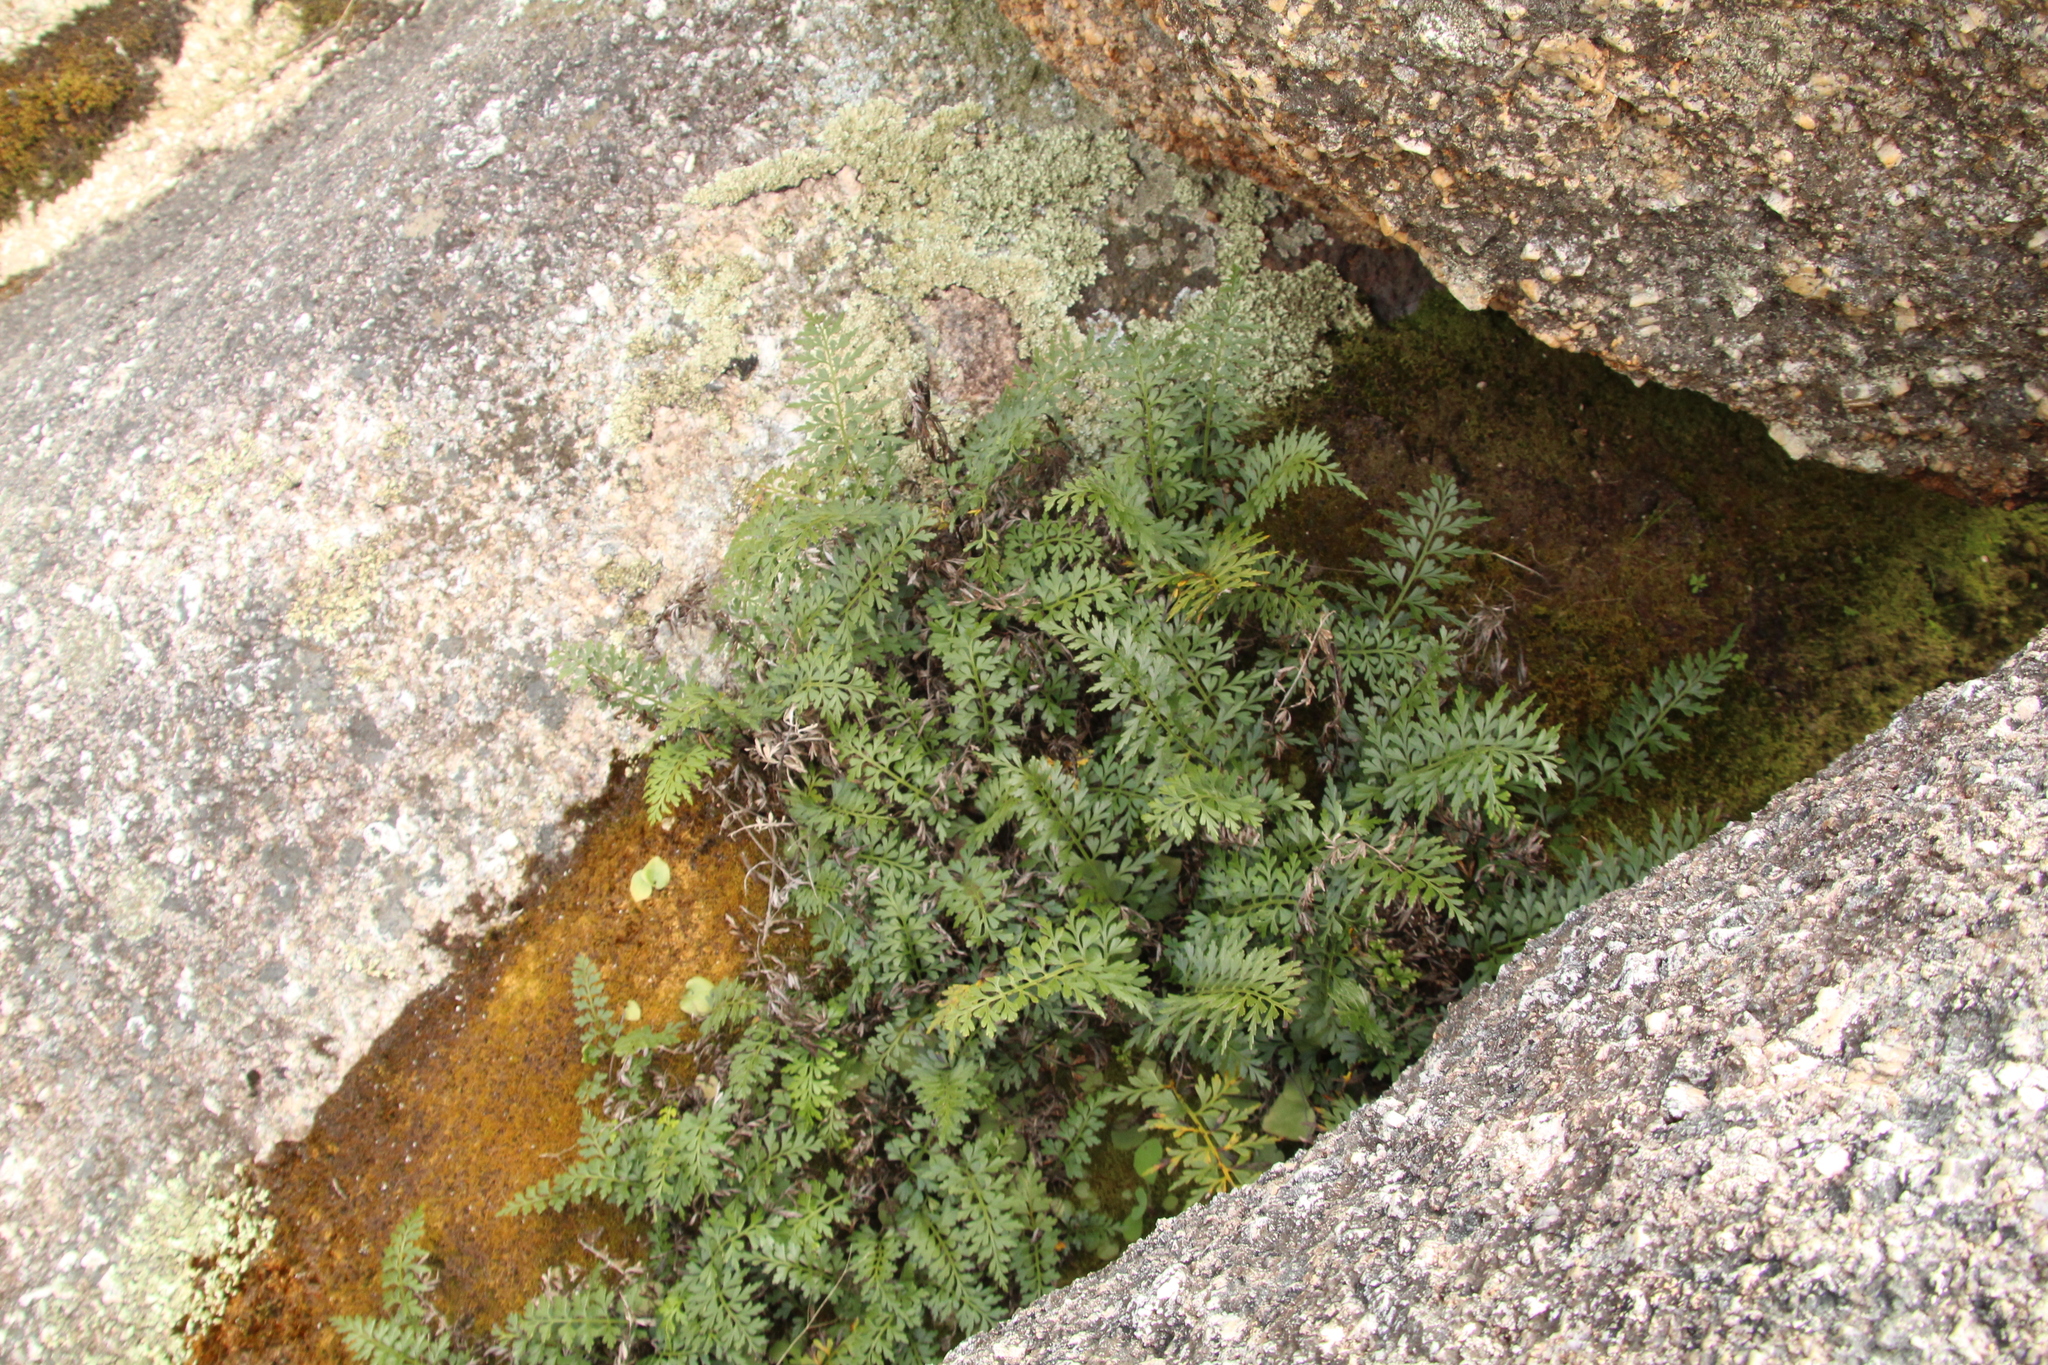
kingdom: Plantae
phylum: Tracheophyta
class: Polypodiopsida
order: Polypodiales
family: Aspleniaceae
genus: Asplenium
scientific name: Asplenium aethiopicum
